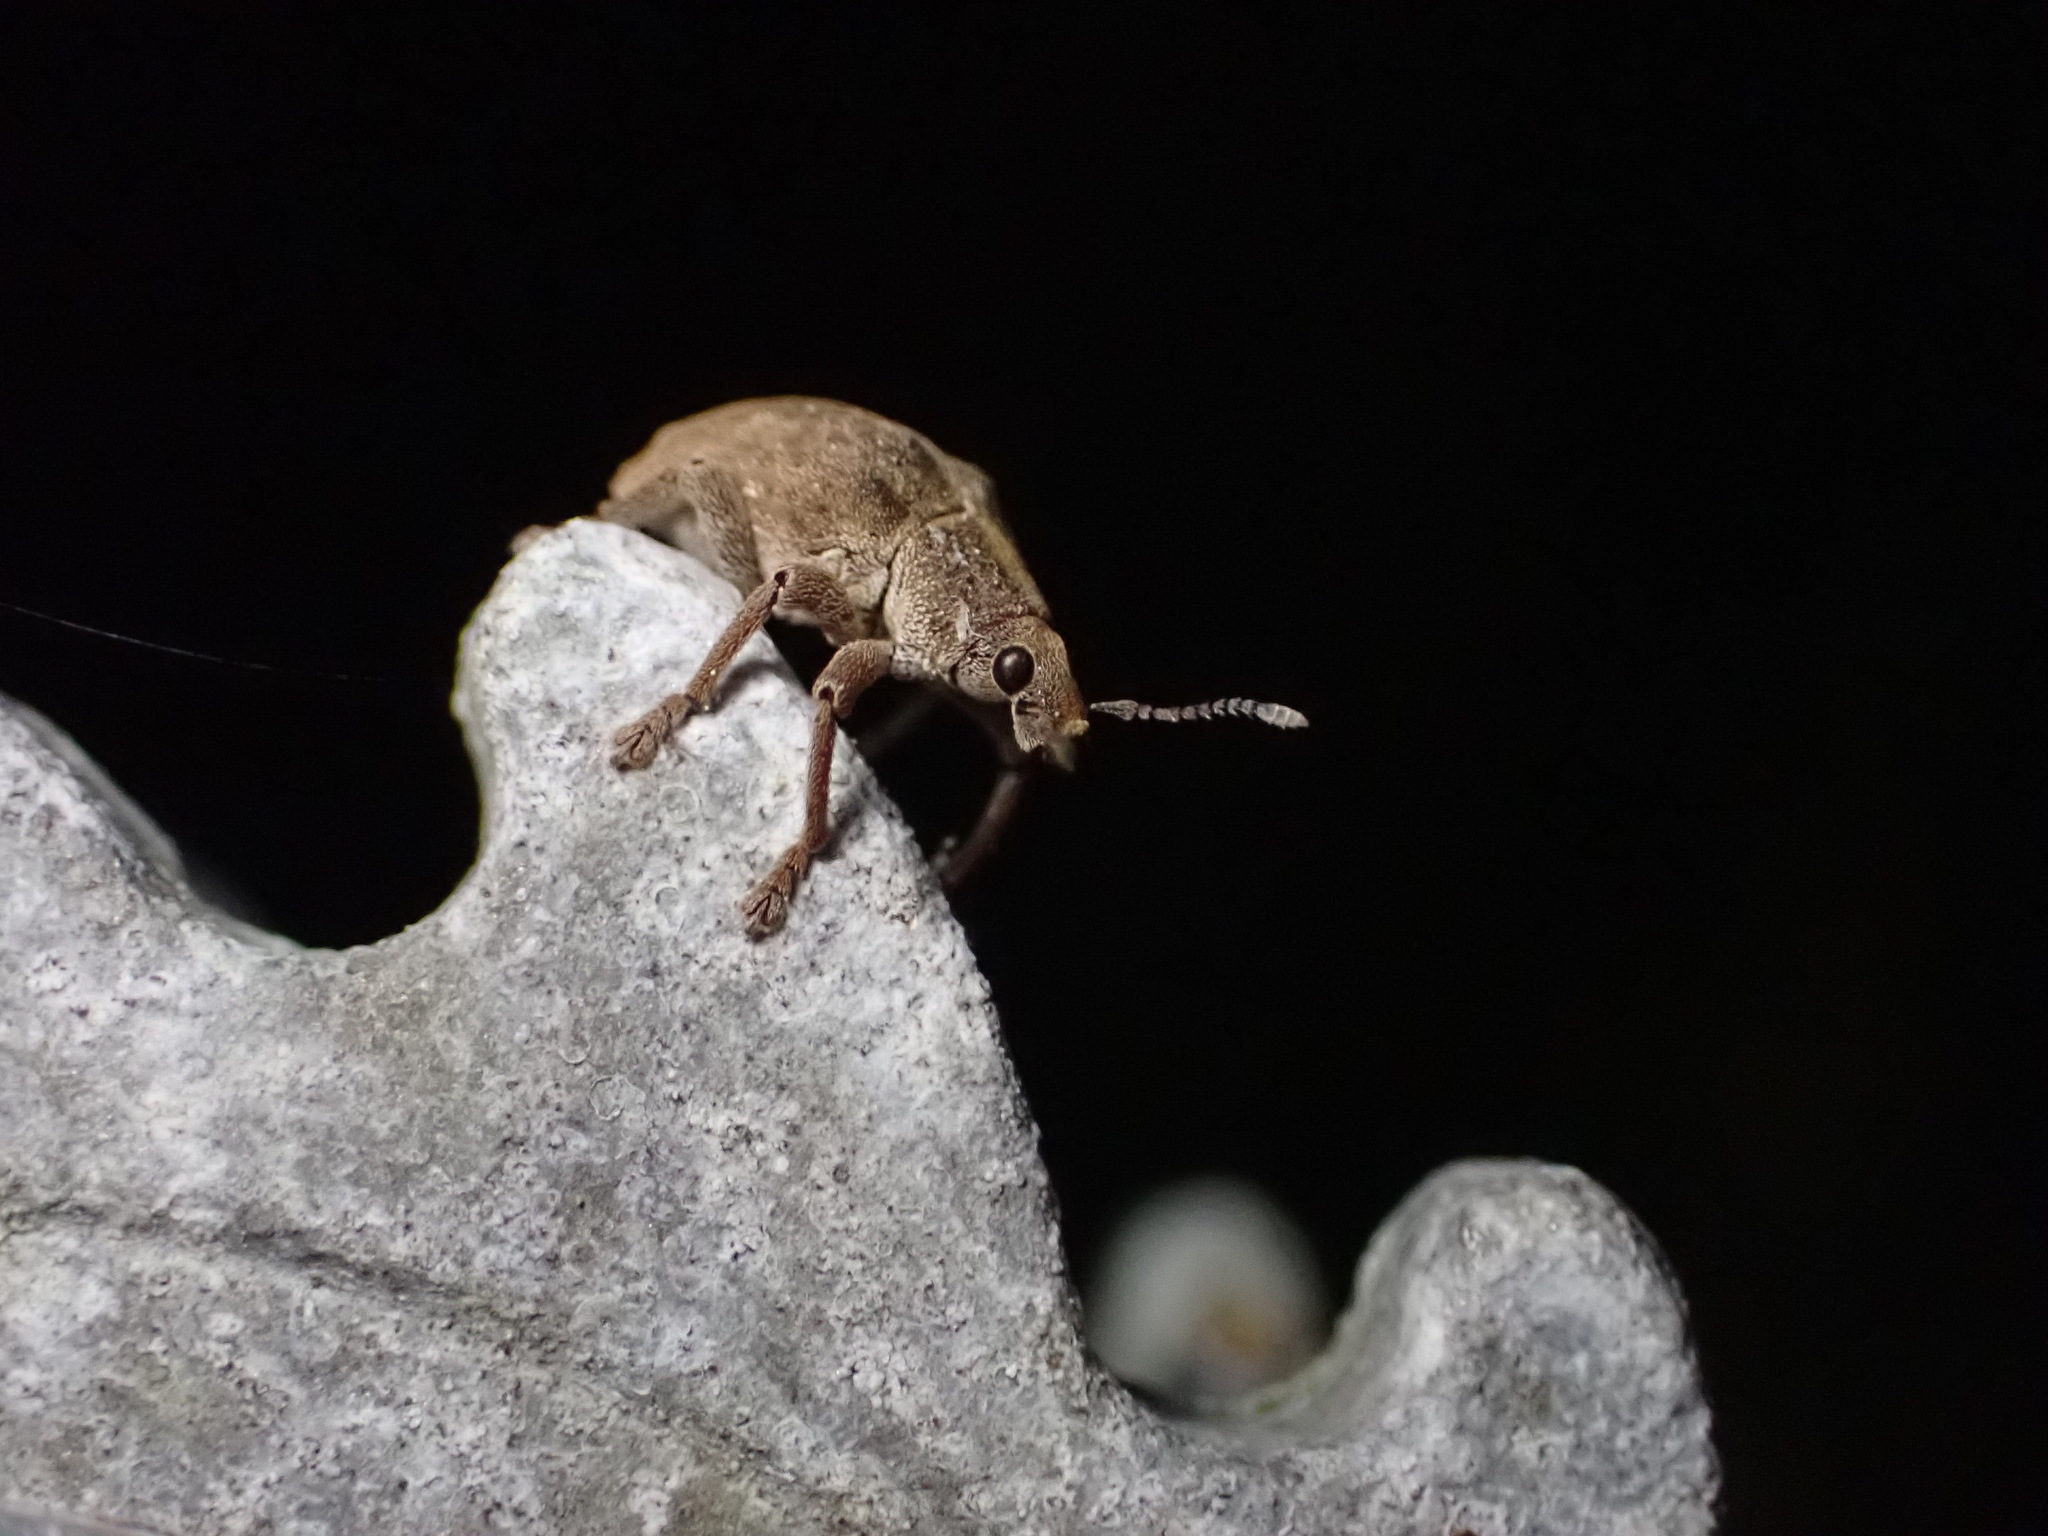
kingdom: Animalia
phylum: Arthropoda
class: Insecta
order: Coleoptera
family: Curculionidae
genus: Gonipterus
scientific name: Gonipterus platensis
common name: Eucalyptus snout beetle
